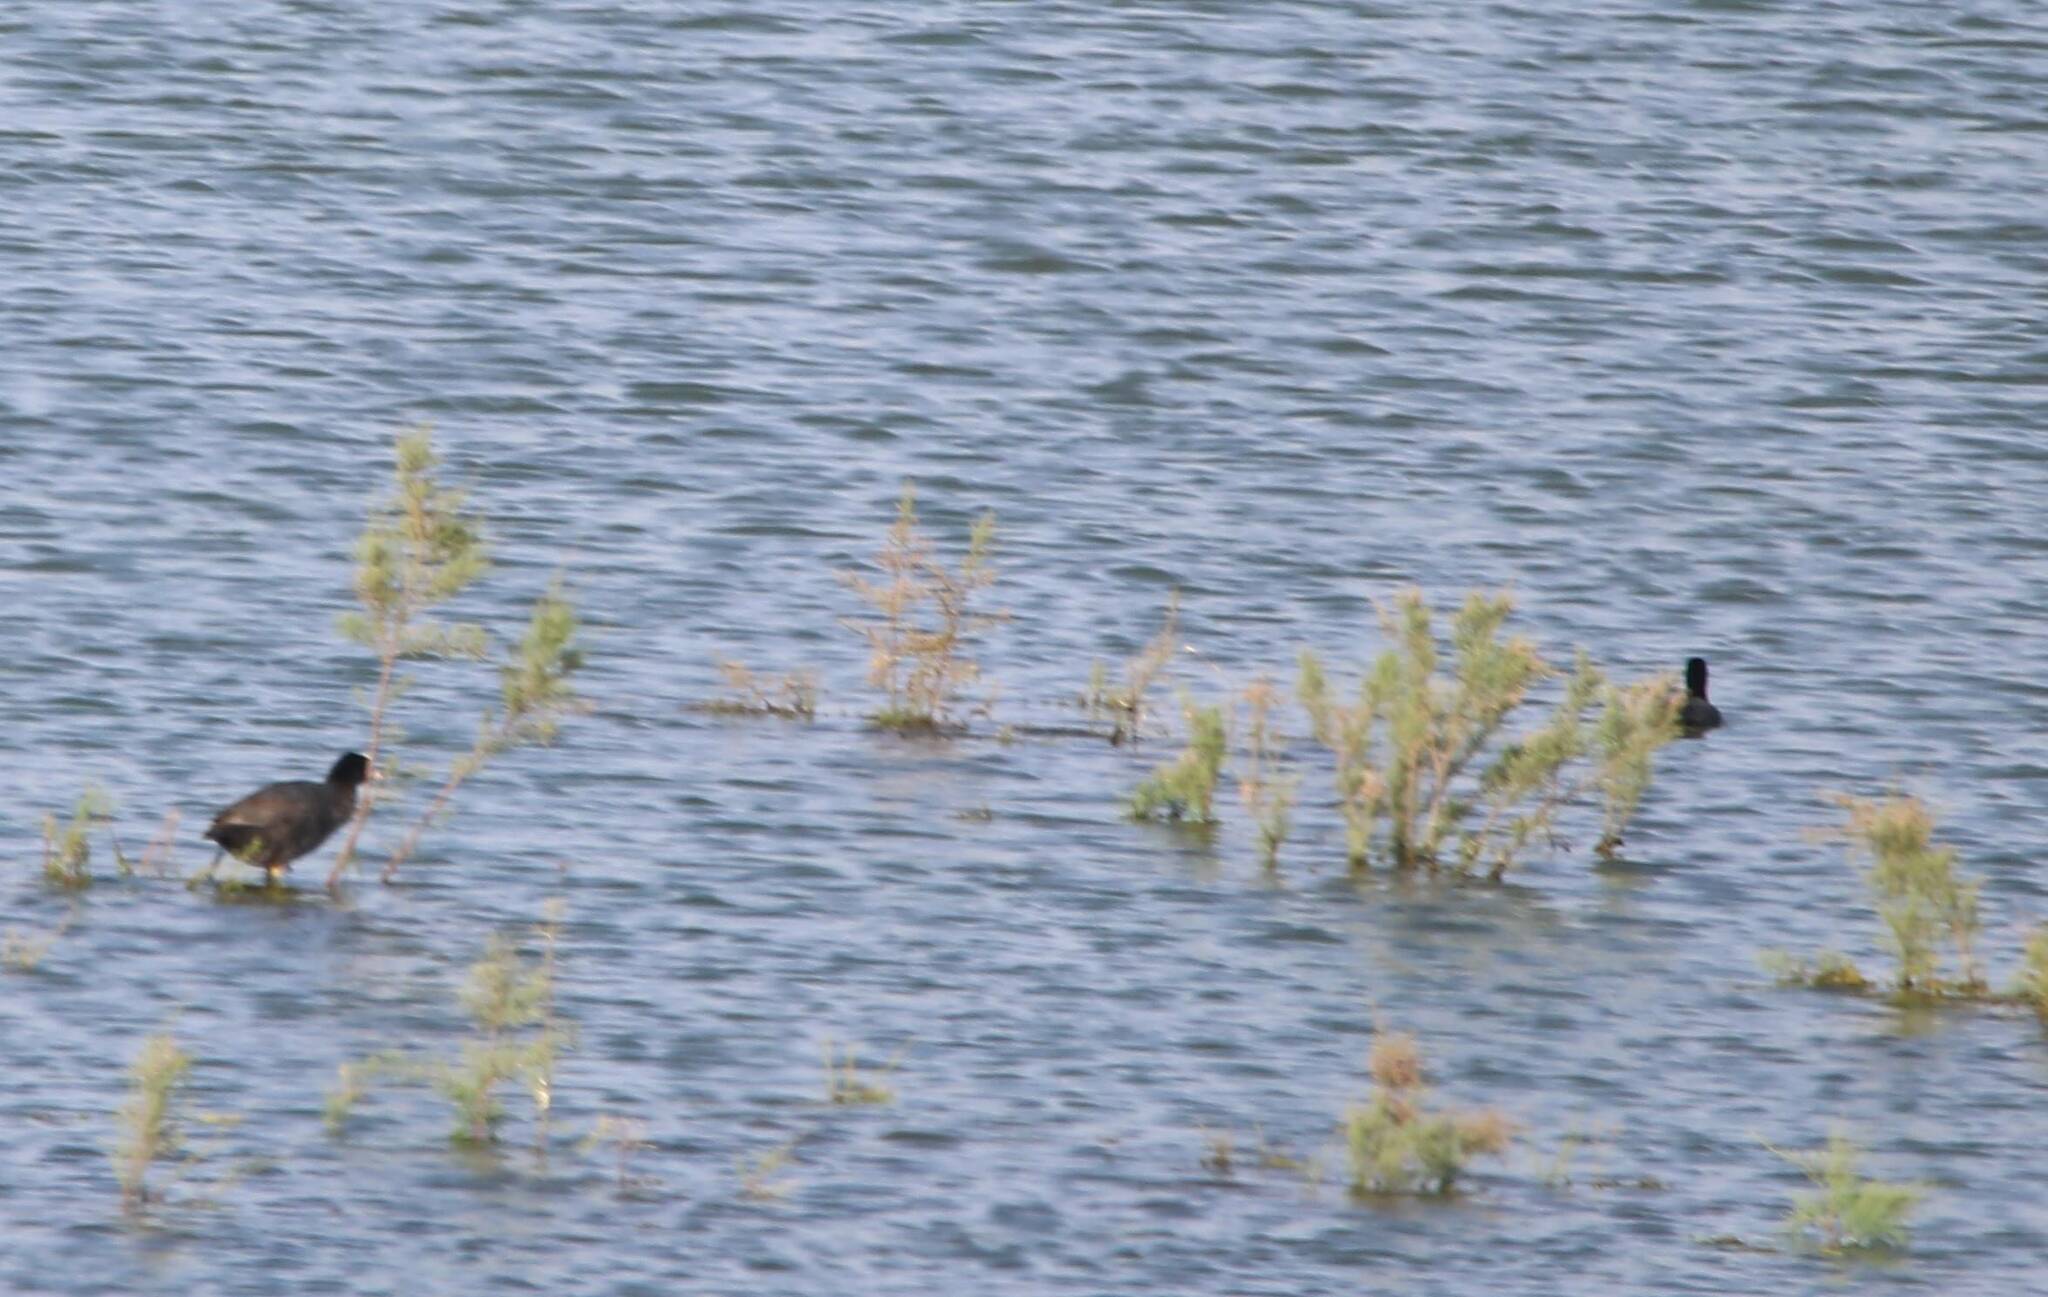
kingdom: Animalia
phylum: Chordata
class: Aves
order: Gruiformes
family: Rallidae
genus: Fulica
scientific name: Fulica atra
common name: Eurasian coot
